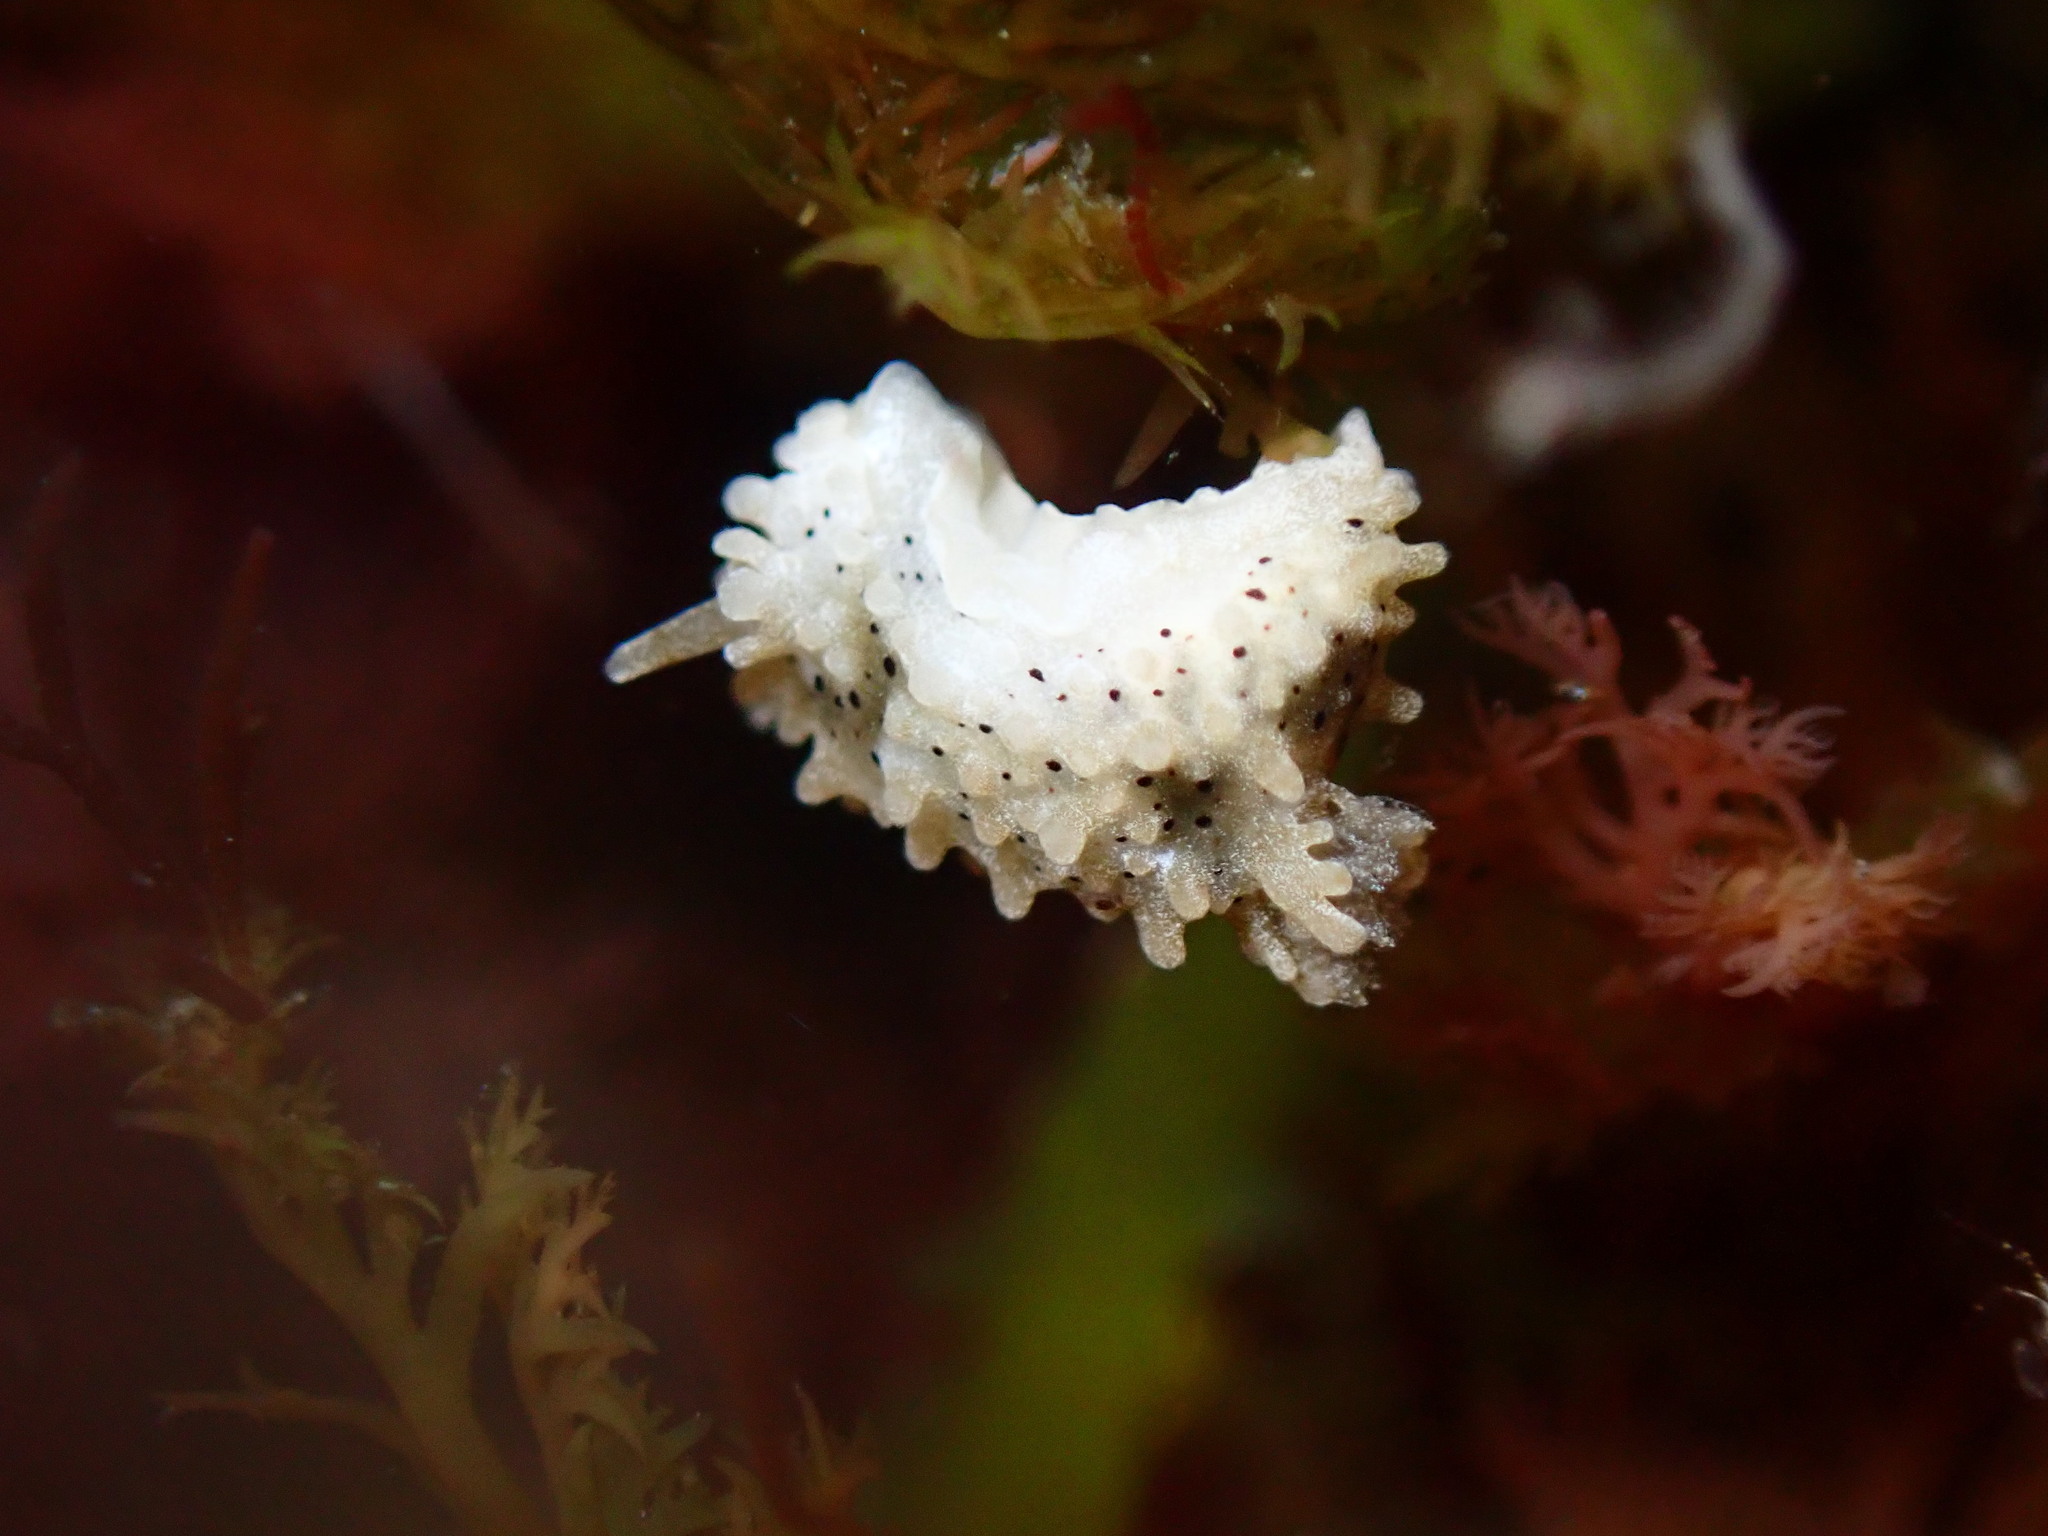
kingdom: Animalia
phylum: Mollusca
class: Gastropoda
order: Nudibranchia
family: Aegiridae
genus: Aegires
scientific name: Aegires albopunctatus
